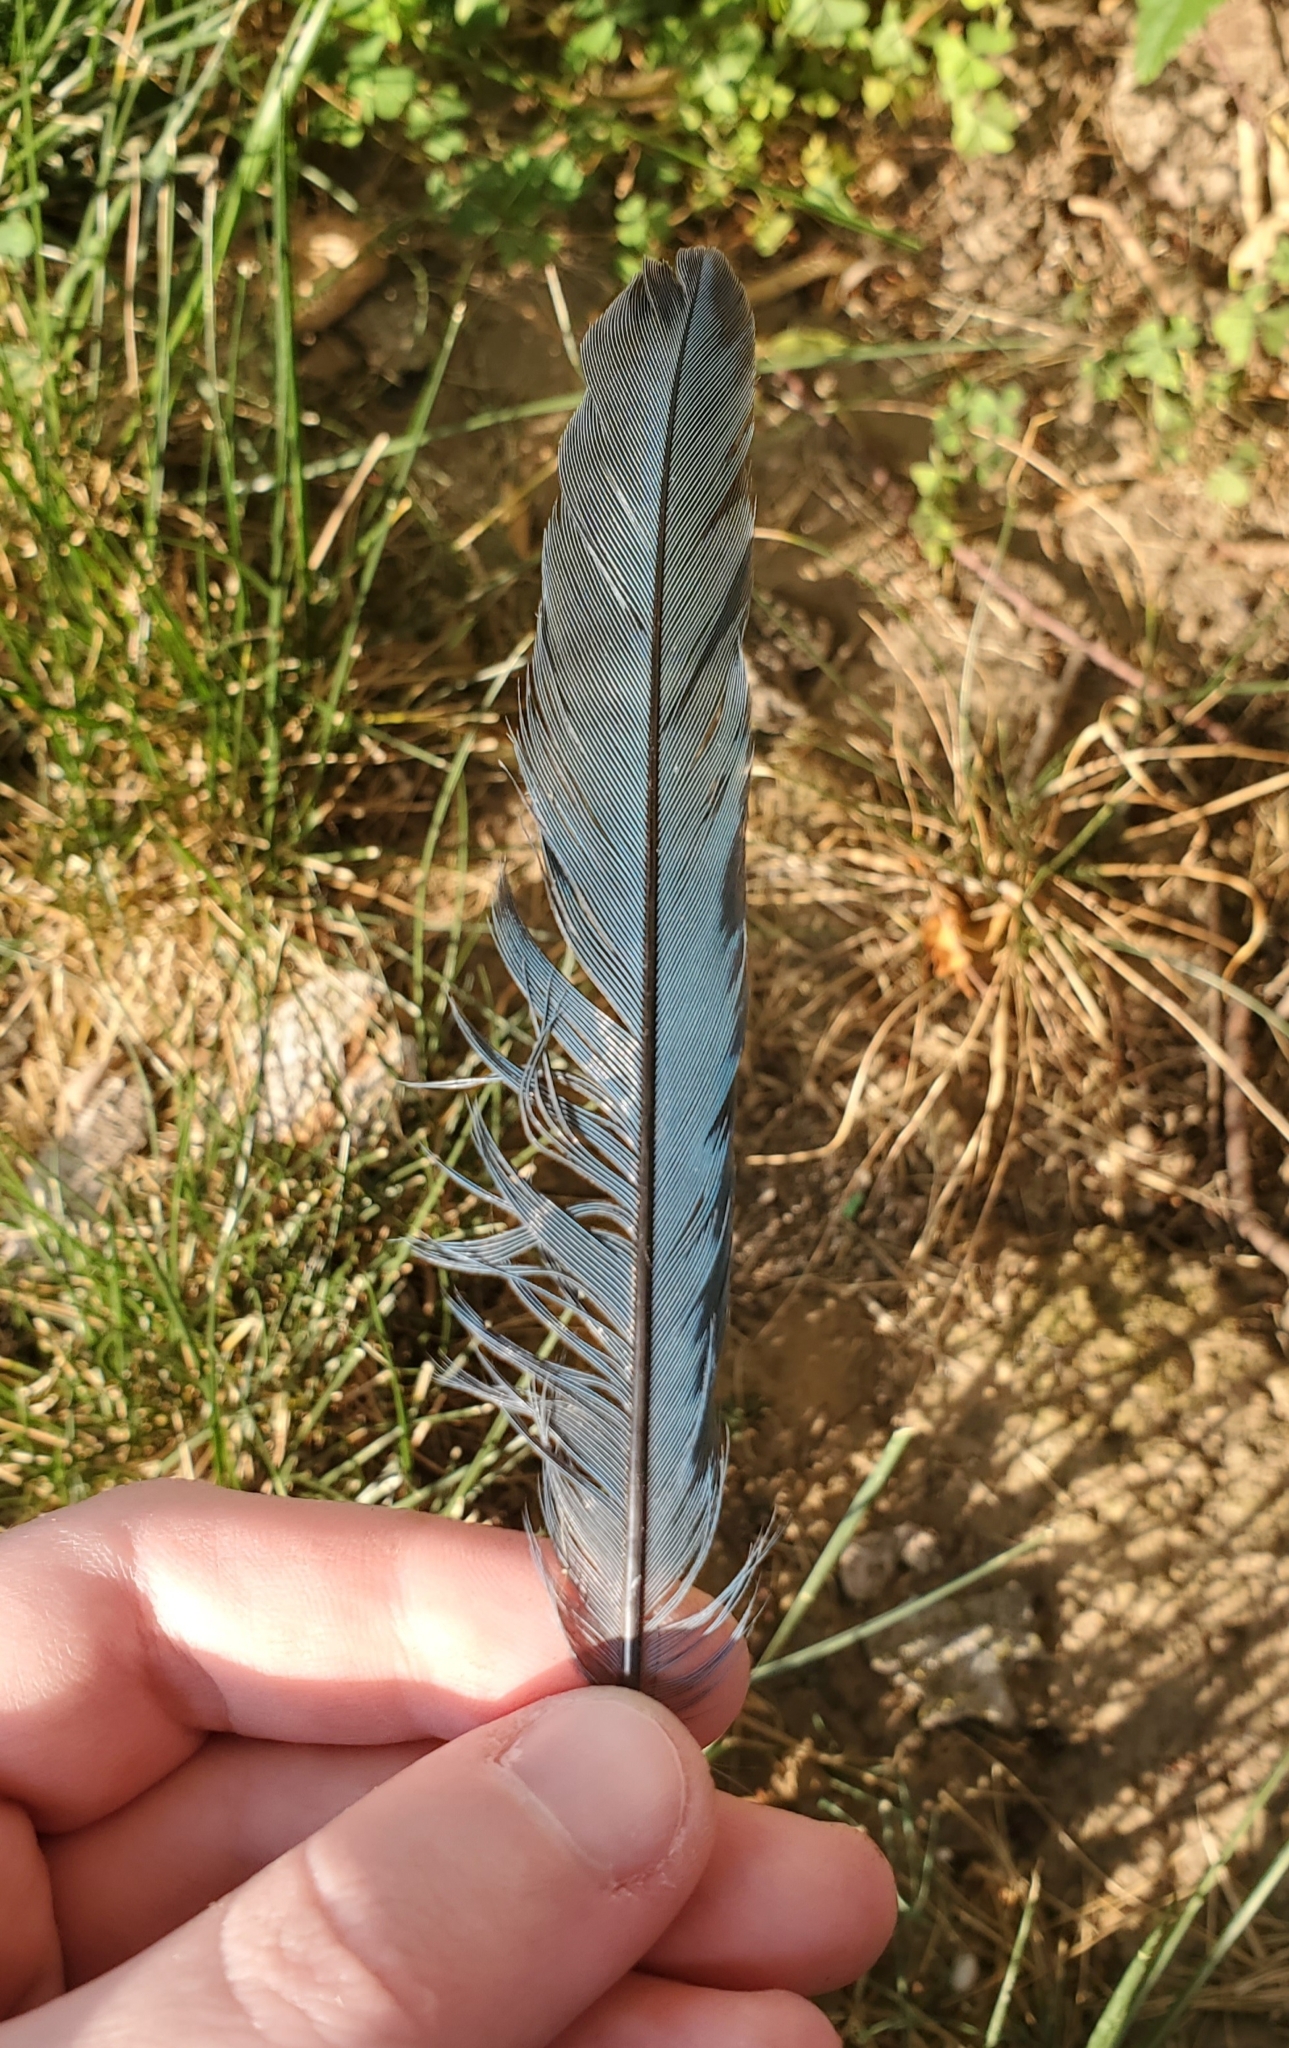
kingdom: Animalia
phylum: Chordata
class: Aves
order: Passeriformes
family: Corvidae
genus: Aphelocoma
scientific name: Aphelocoma californica
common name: California scrub-jay
